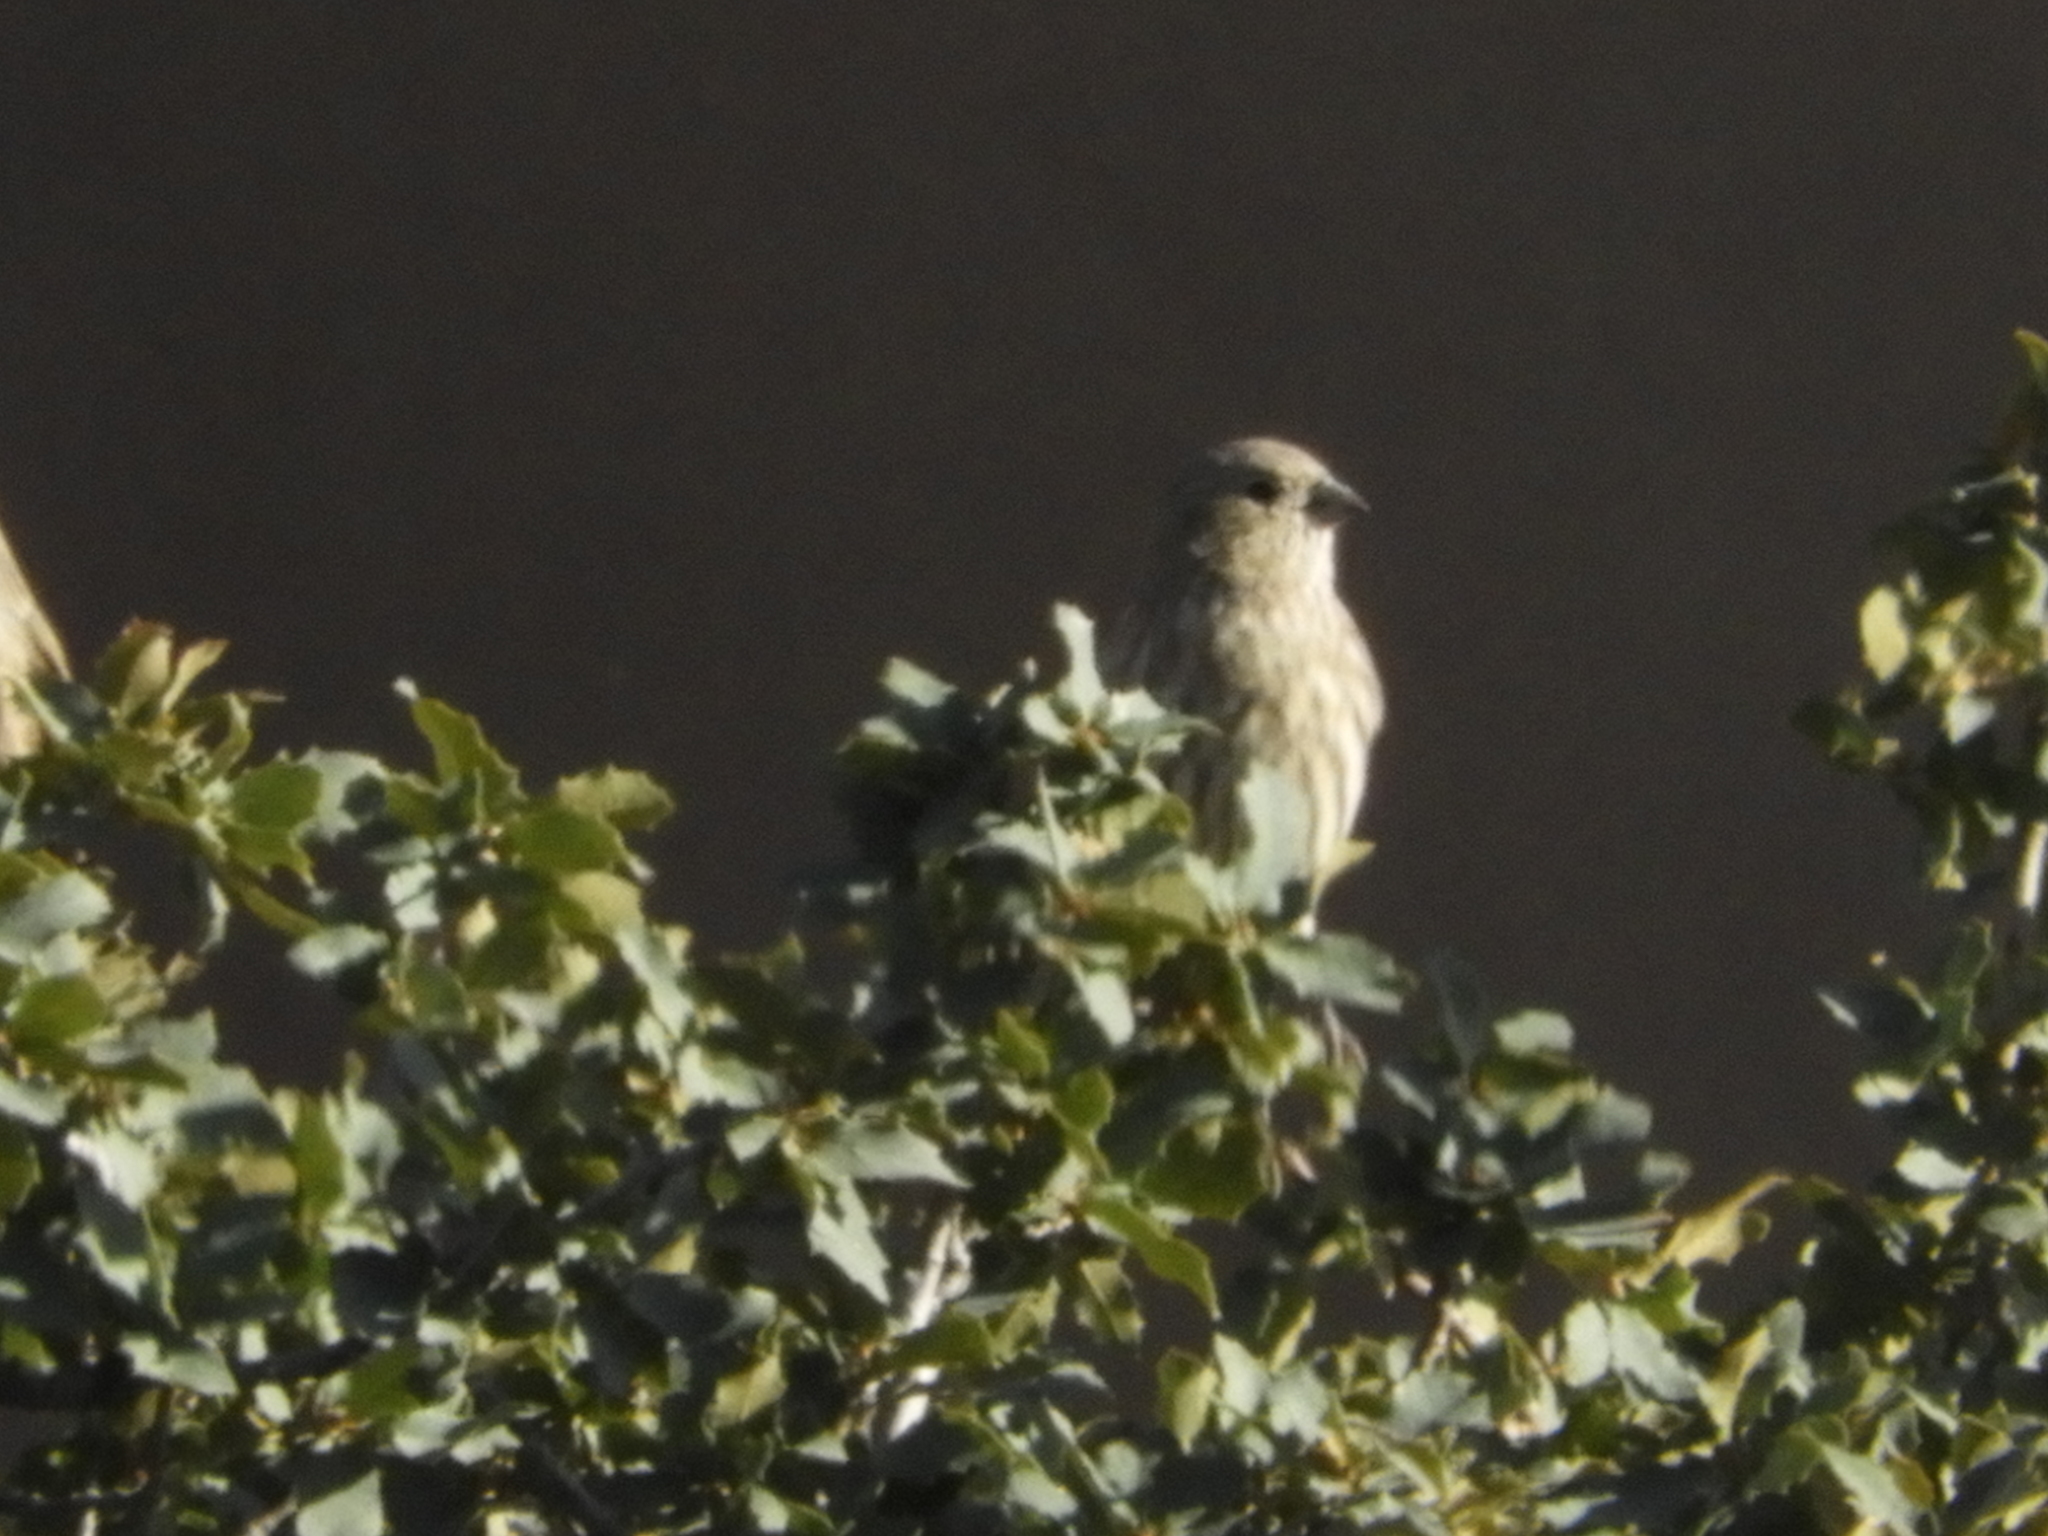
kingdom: Animalia
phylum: Chordata
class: Aves
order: Passeriformes
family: Fringillidae
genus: Haemorhous
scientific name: Haemorhous mexicanus
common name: House finch
